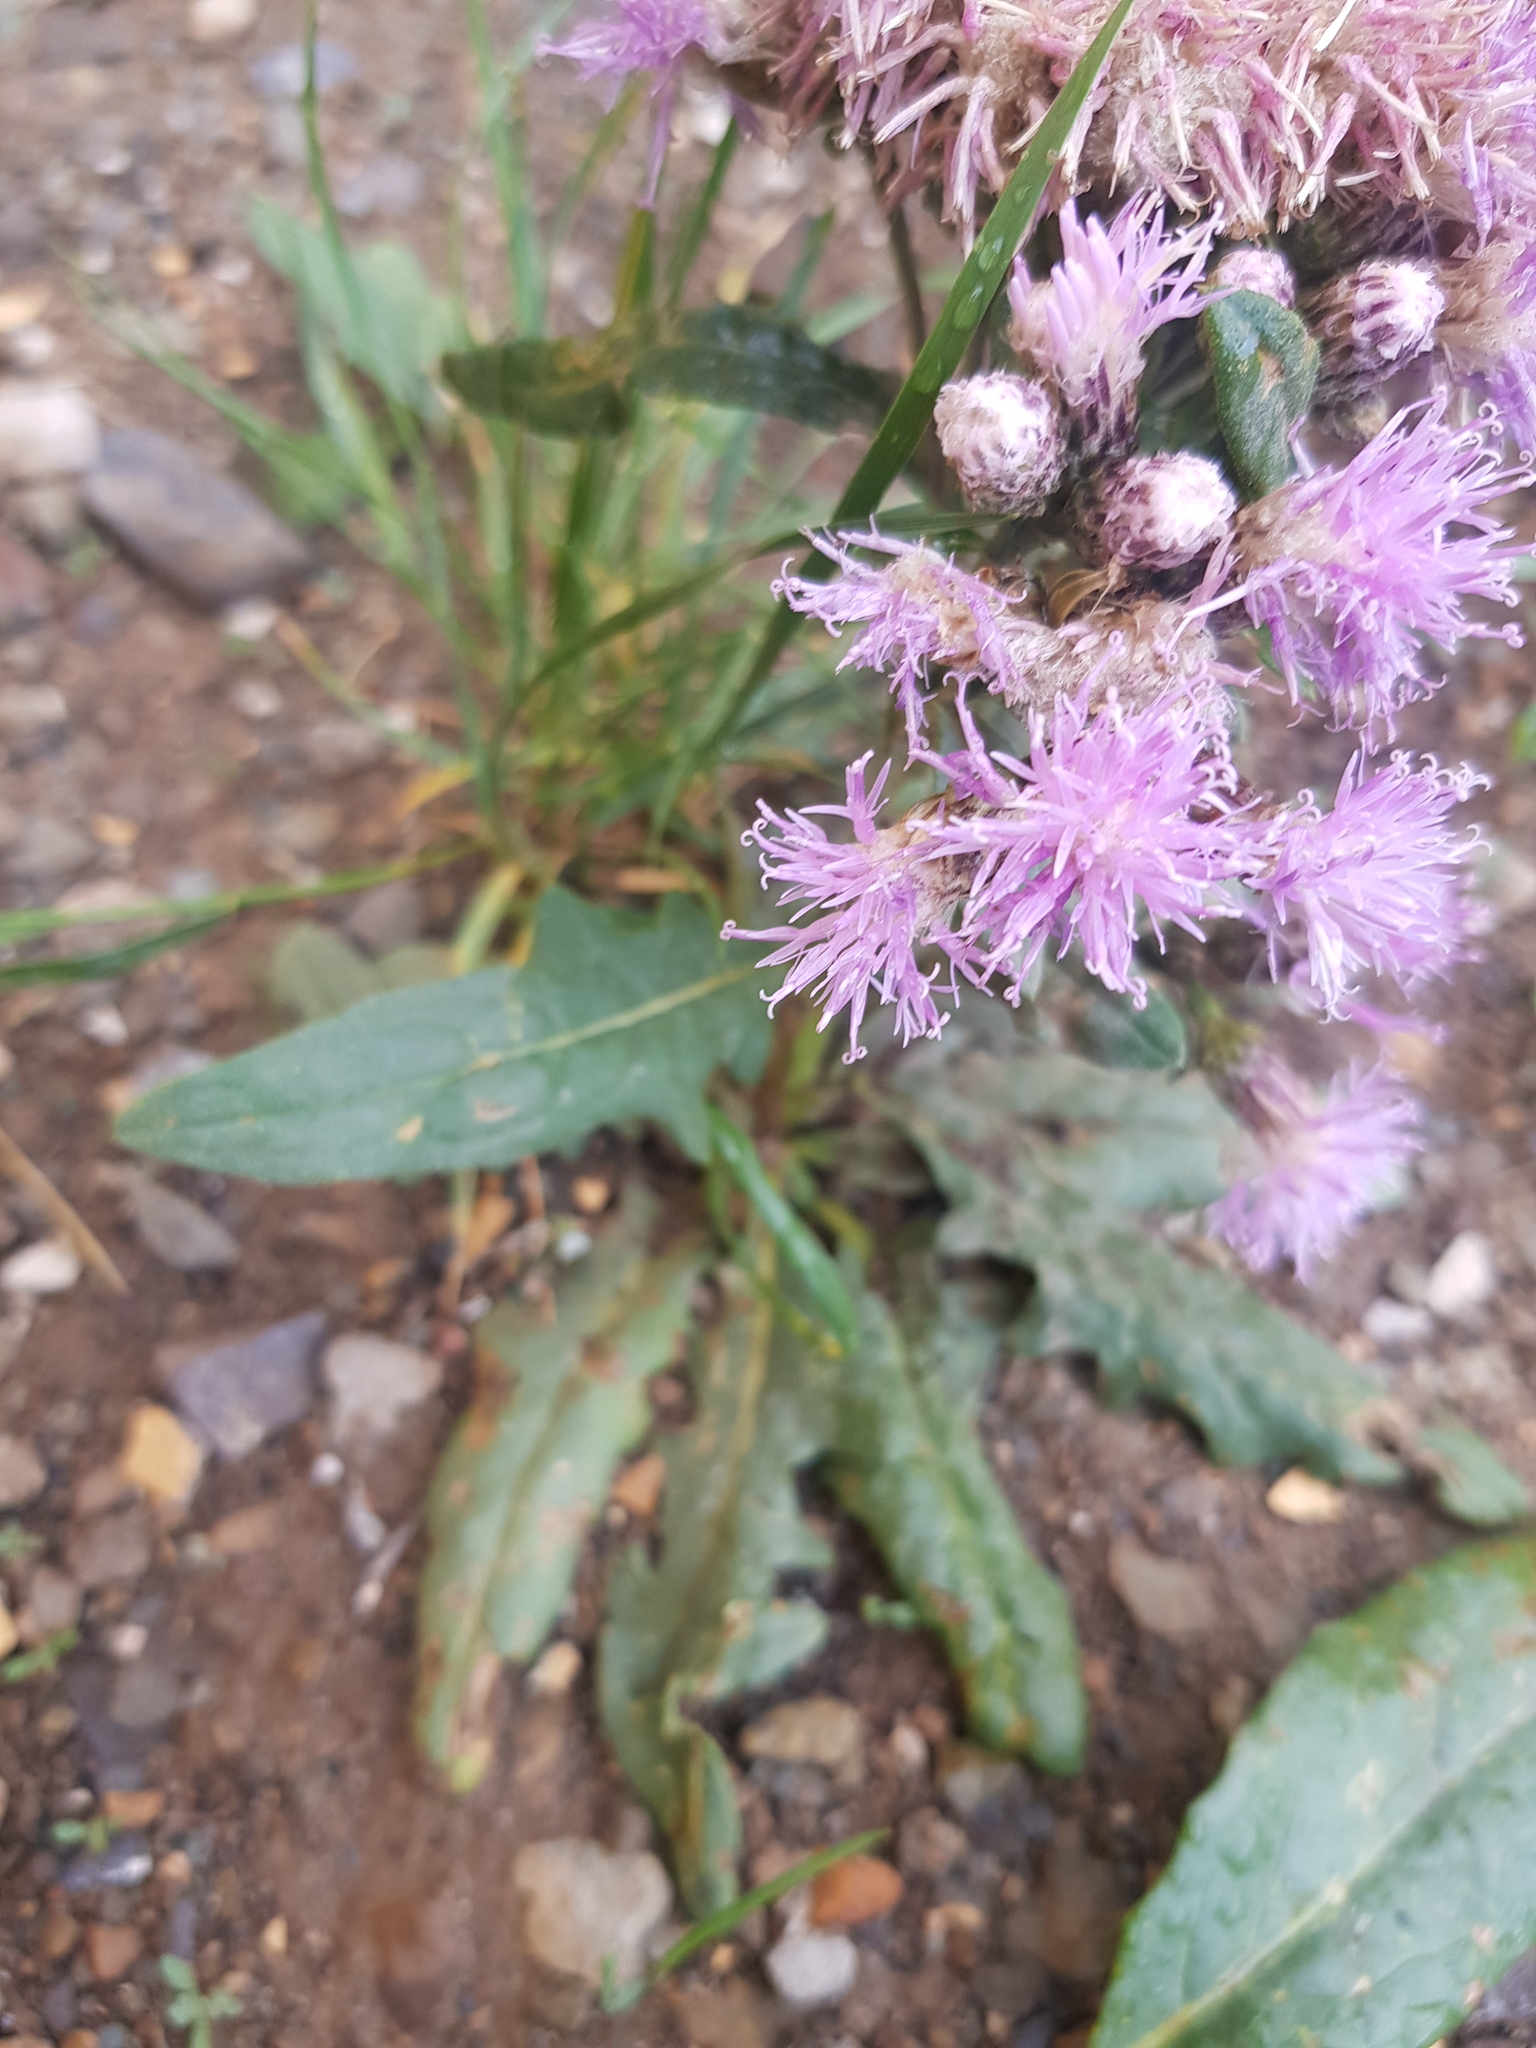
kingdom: Plantae
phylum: Tracheophyta
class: Magnoliopsida
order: Asterales
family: Asteraceae
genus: Saussurea
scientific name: Saussurea salicifolia
